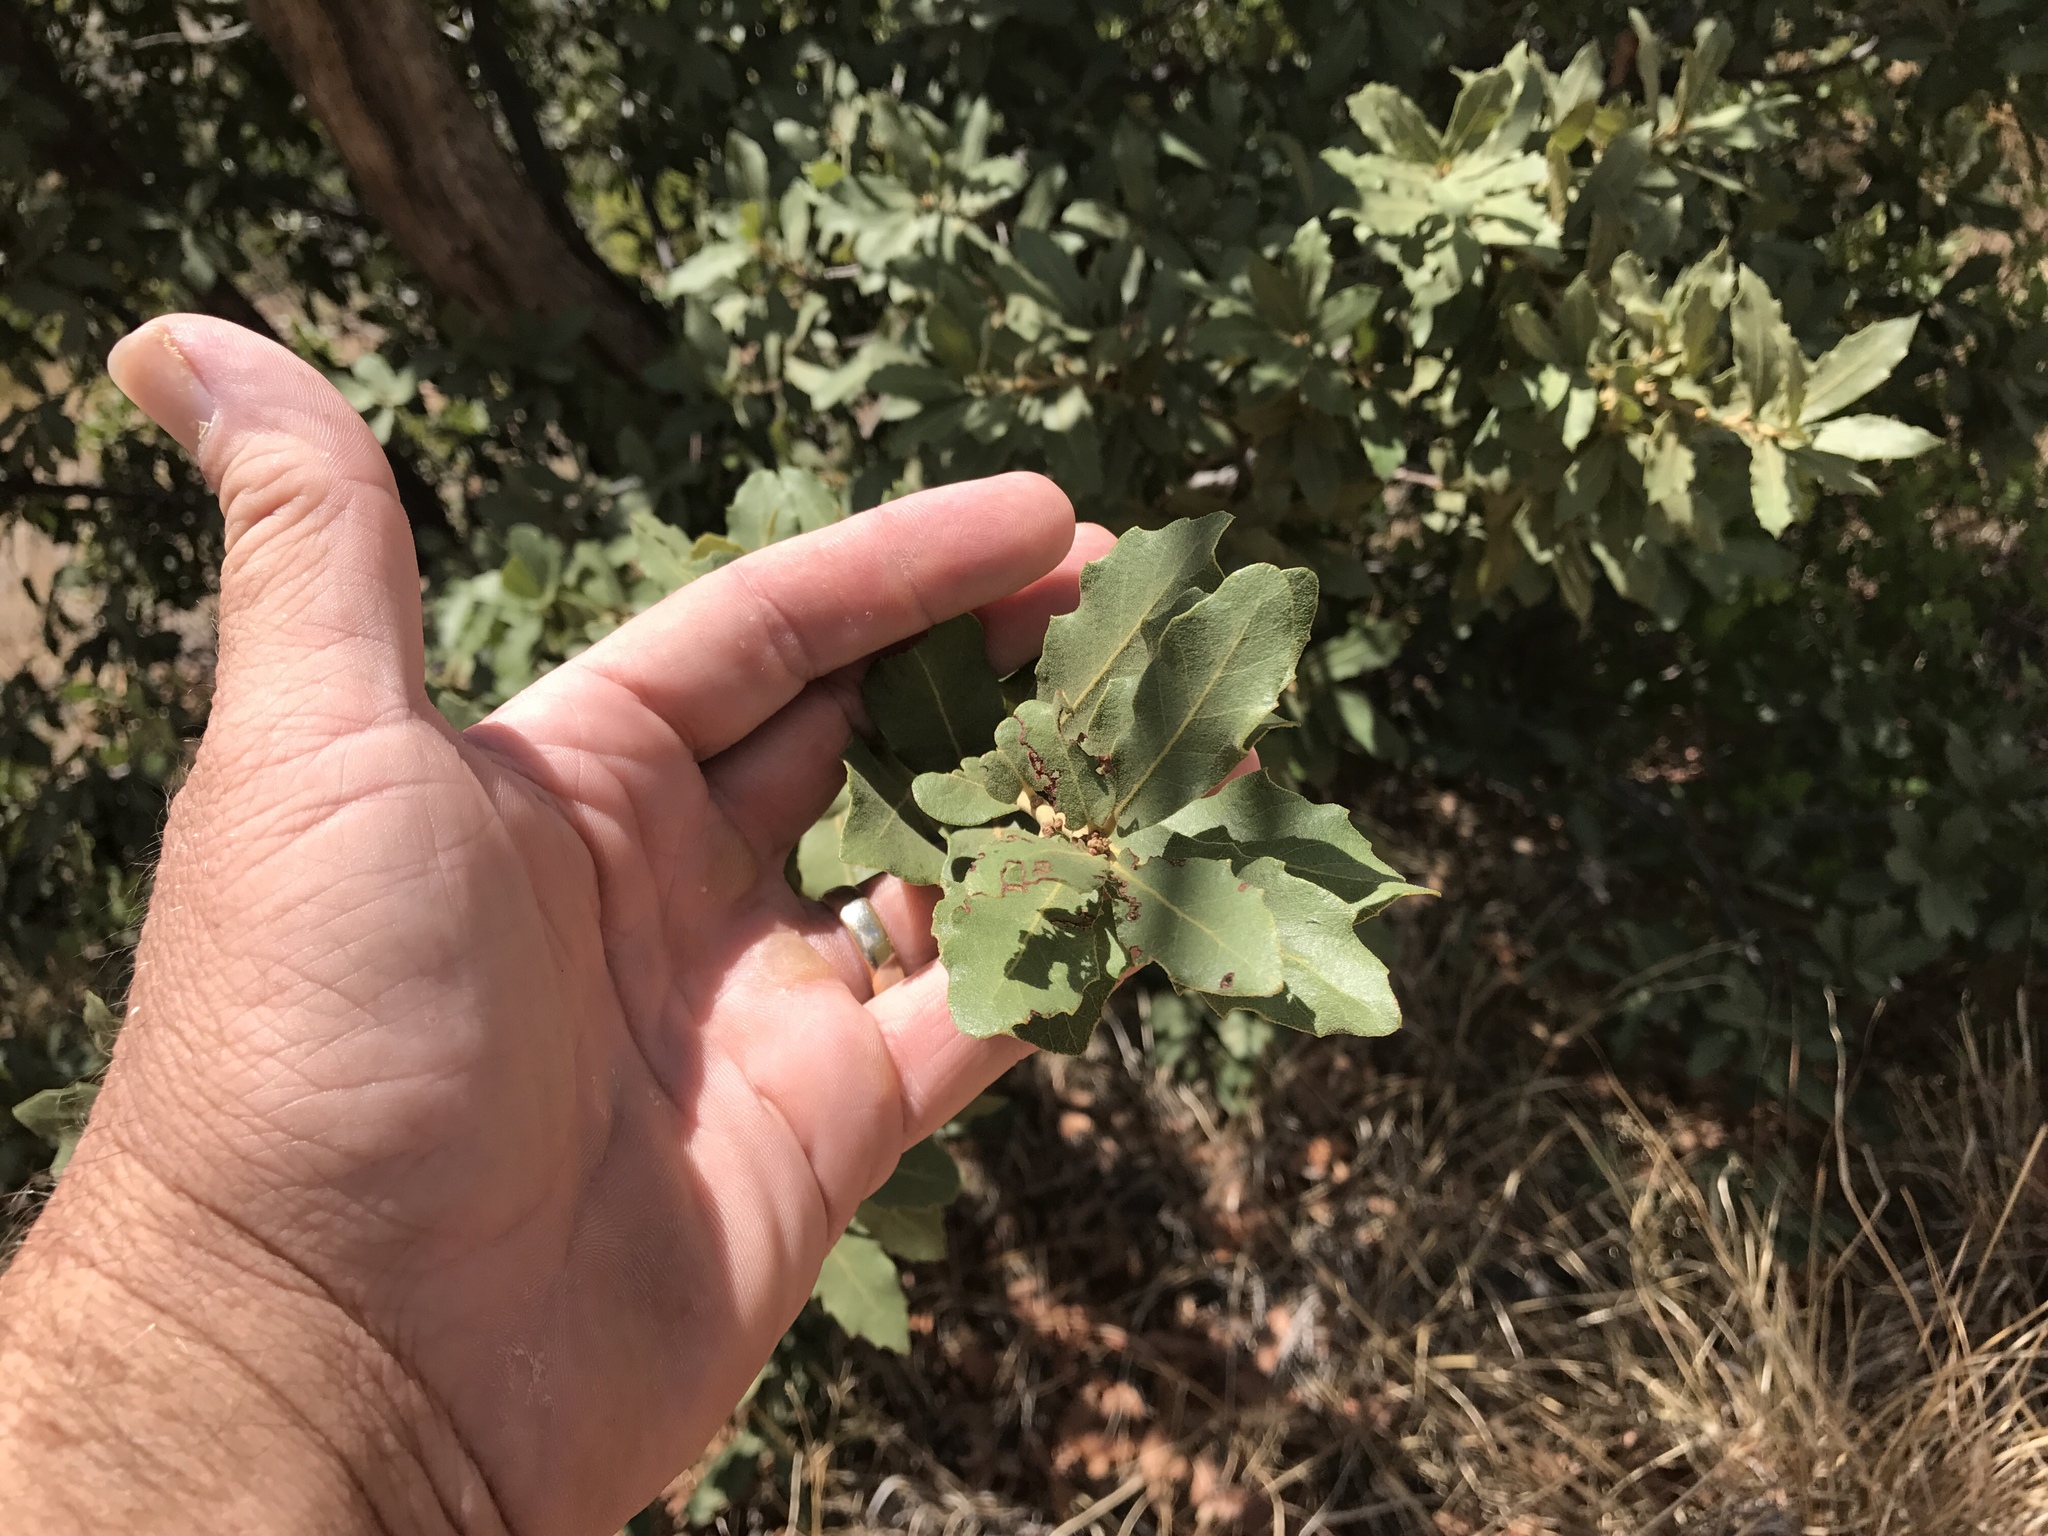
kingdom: Plantae
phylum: Tracheophyta
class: Magnoliopsida
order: Fagales
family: Fagaceae
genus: Quercus
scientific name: Quercus oblongifolia
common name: Mexican blue oak
